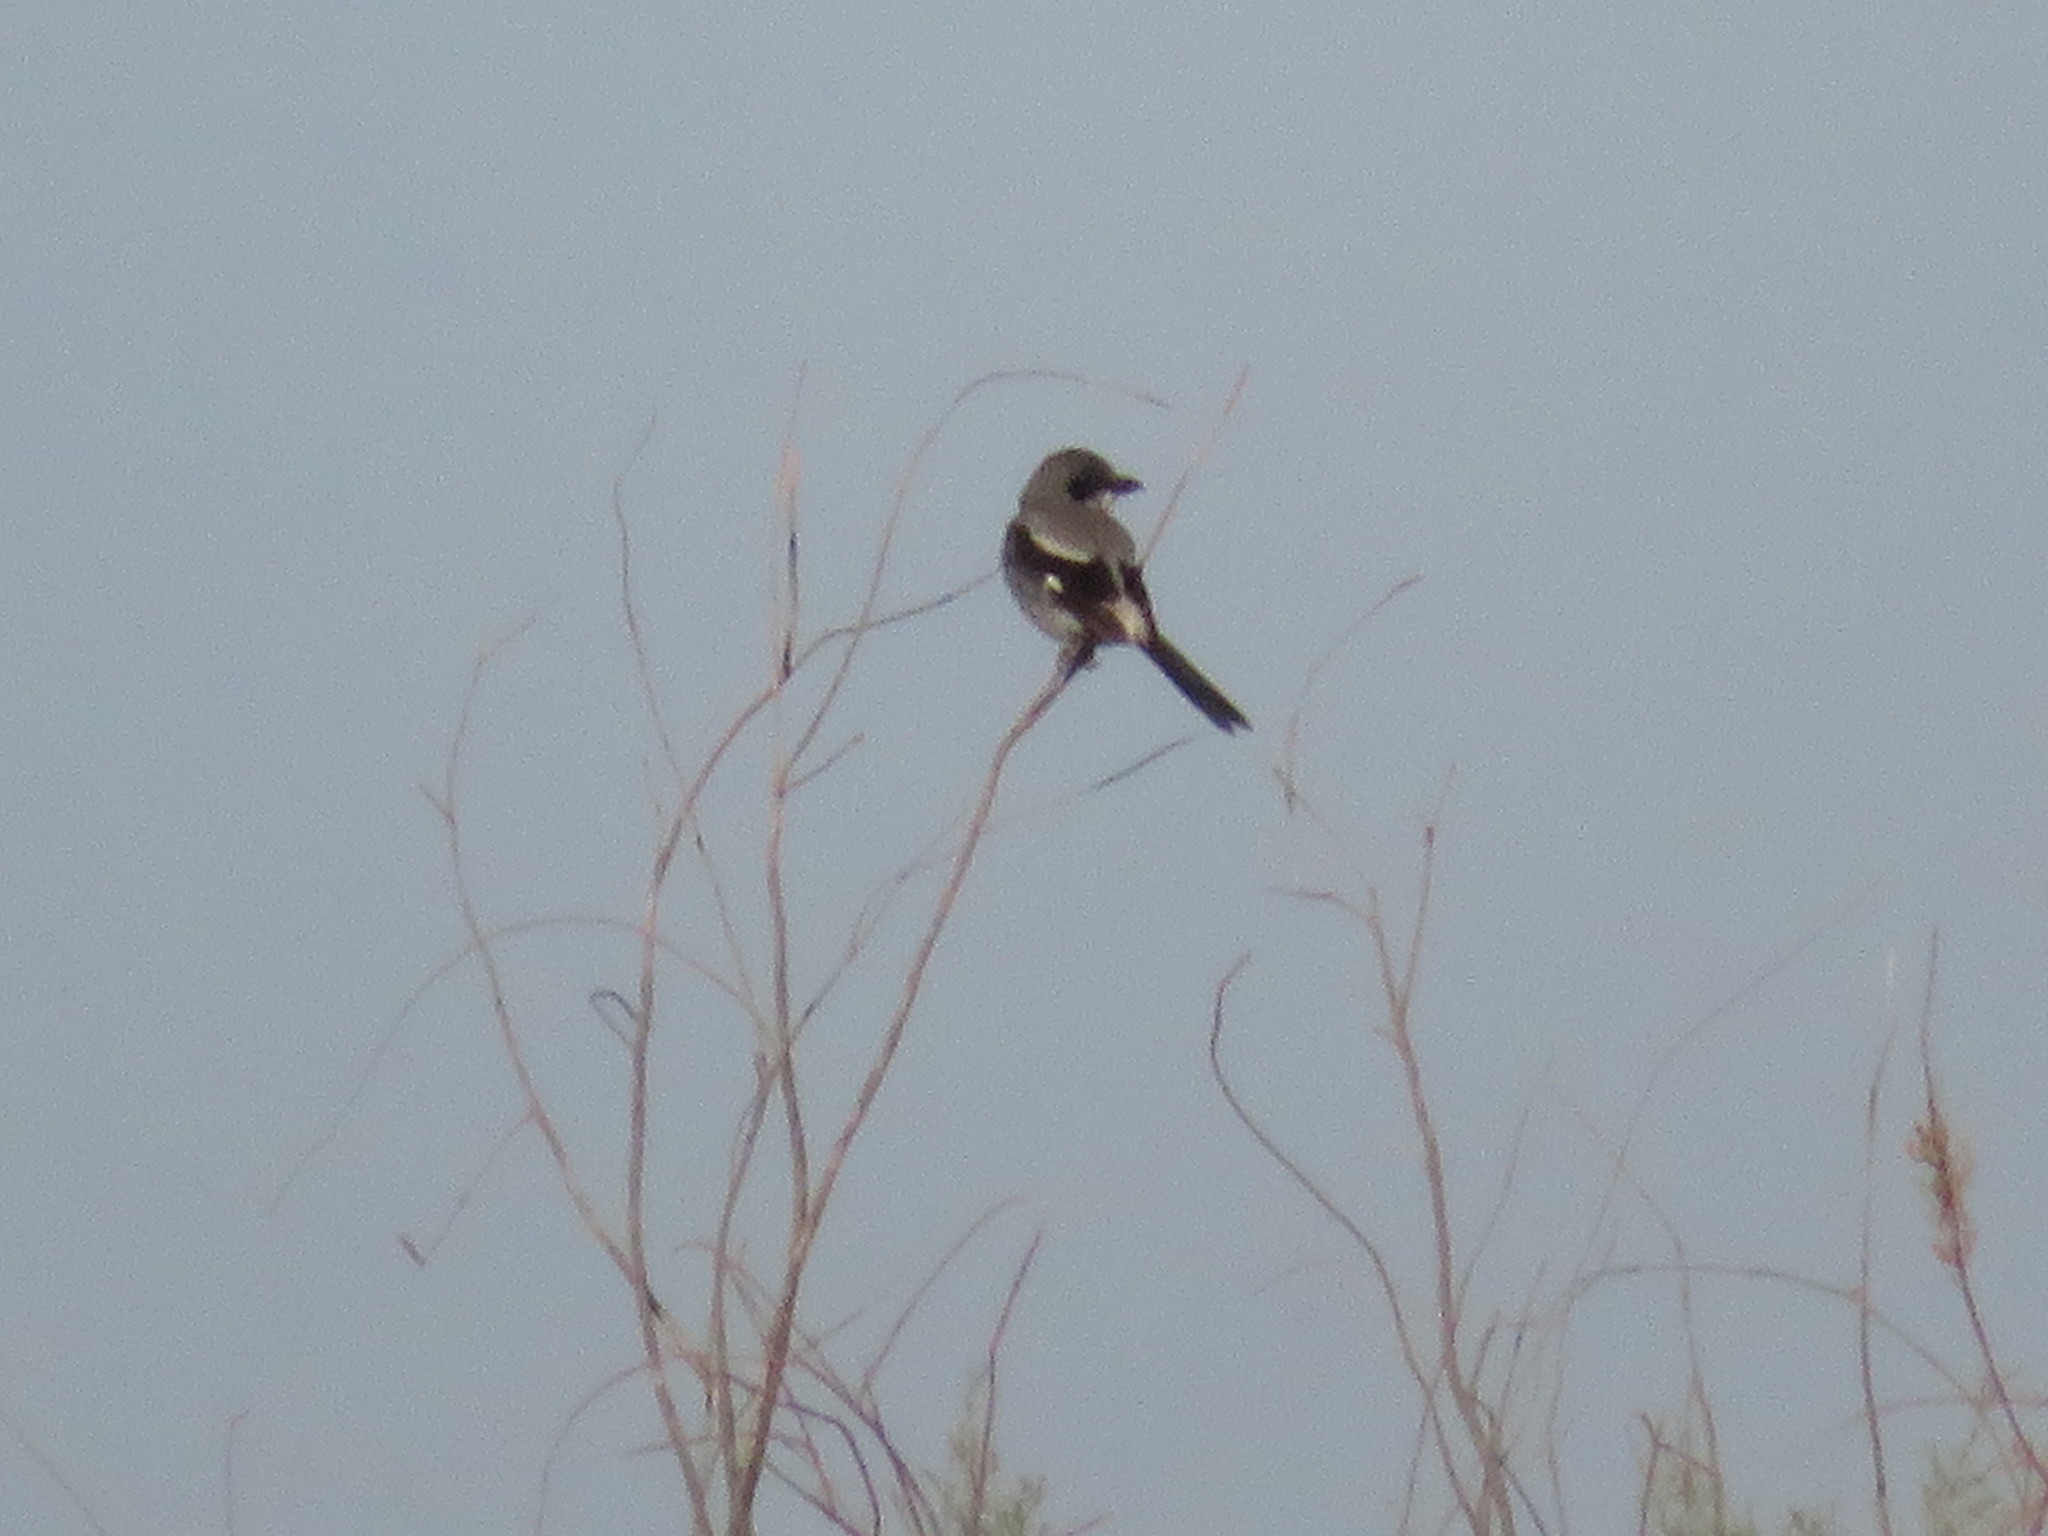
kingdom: Animalia
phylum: Chordata
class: Aves
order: Passeriformes
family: Laniidae
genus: Lanius
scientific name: Lanius ludovicianus
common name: Loggerhead shrike
